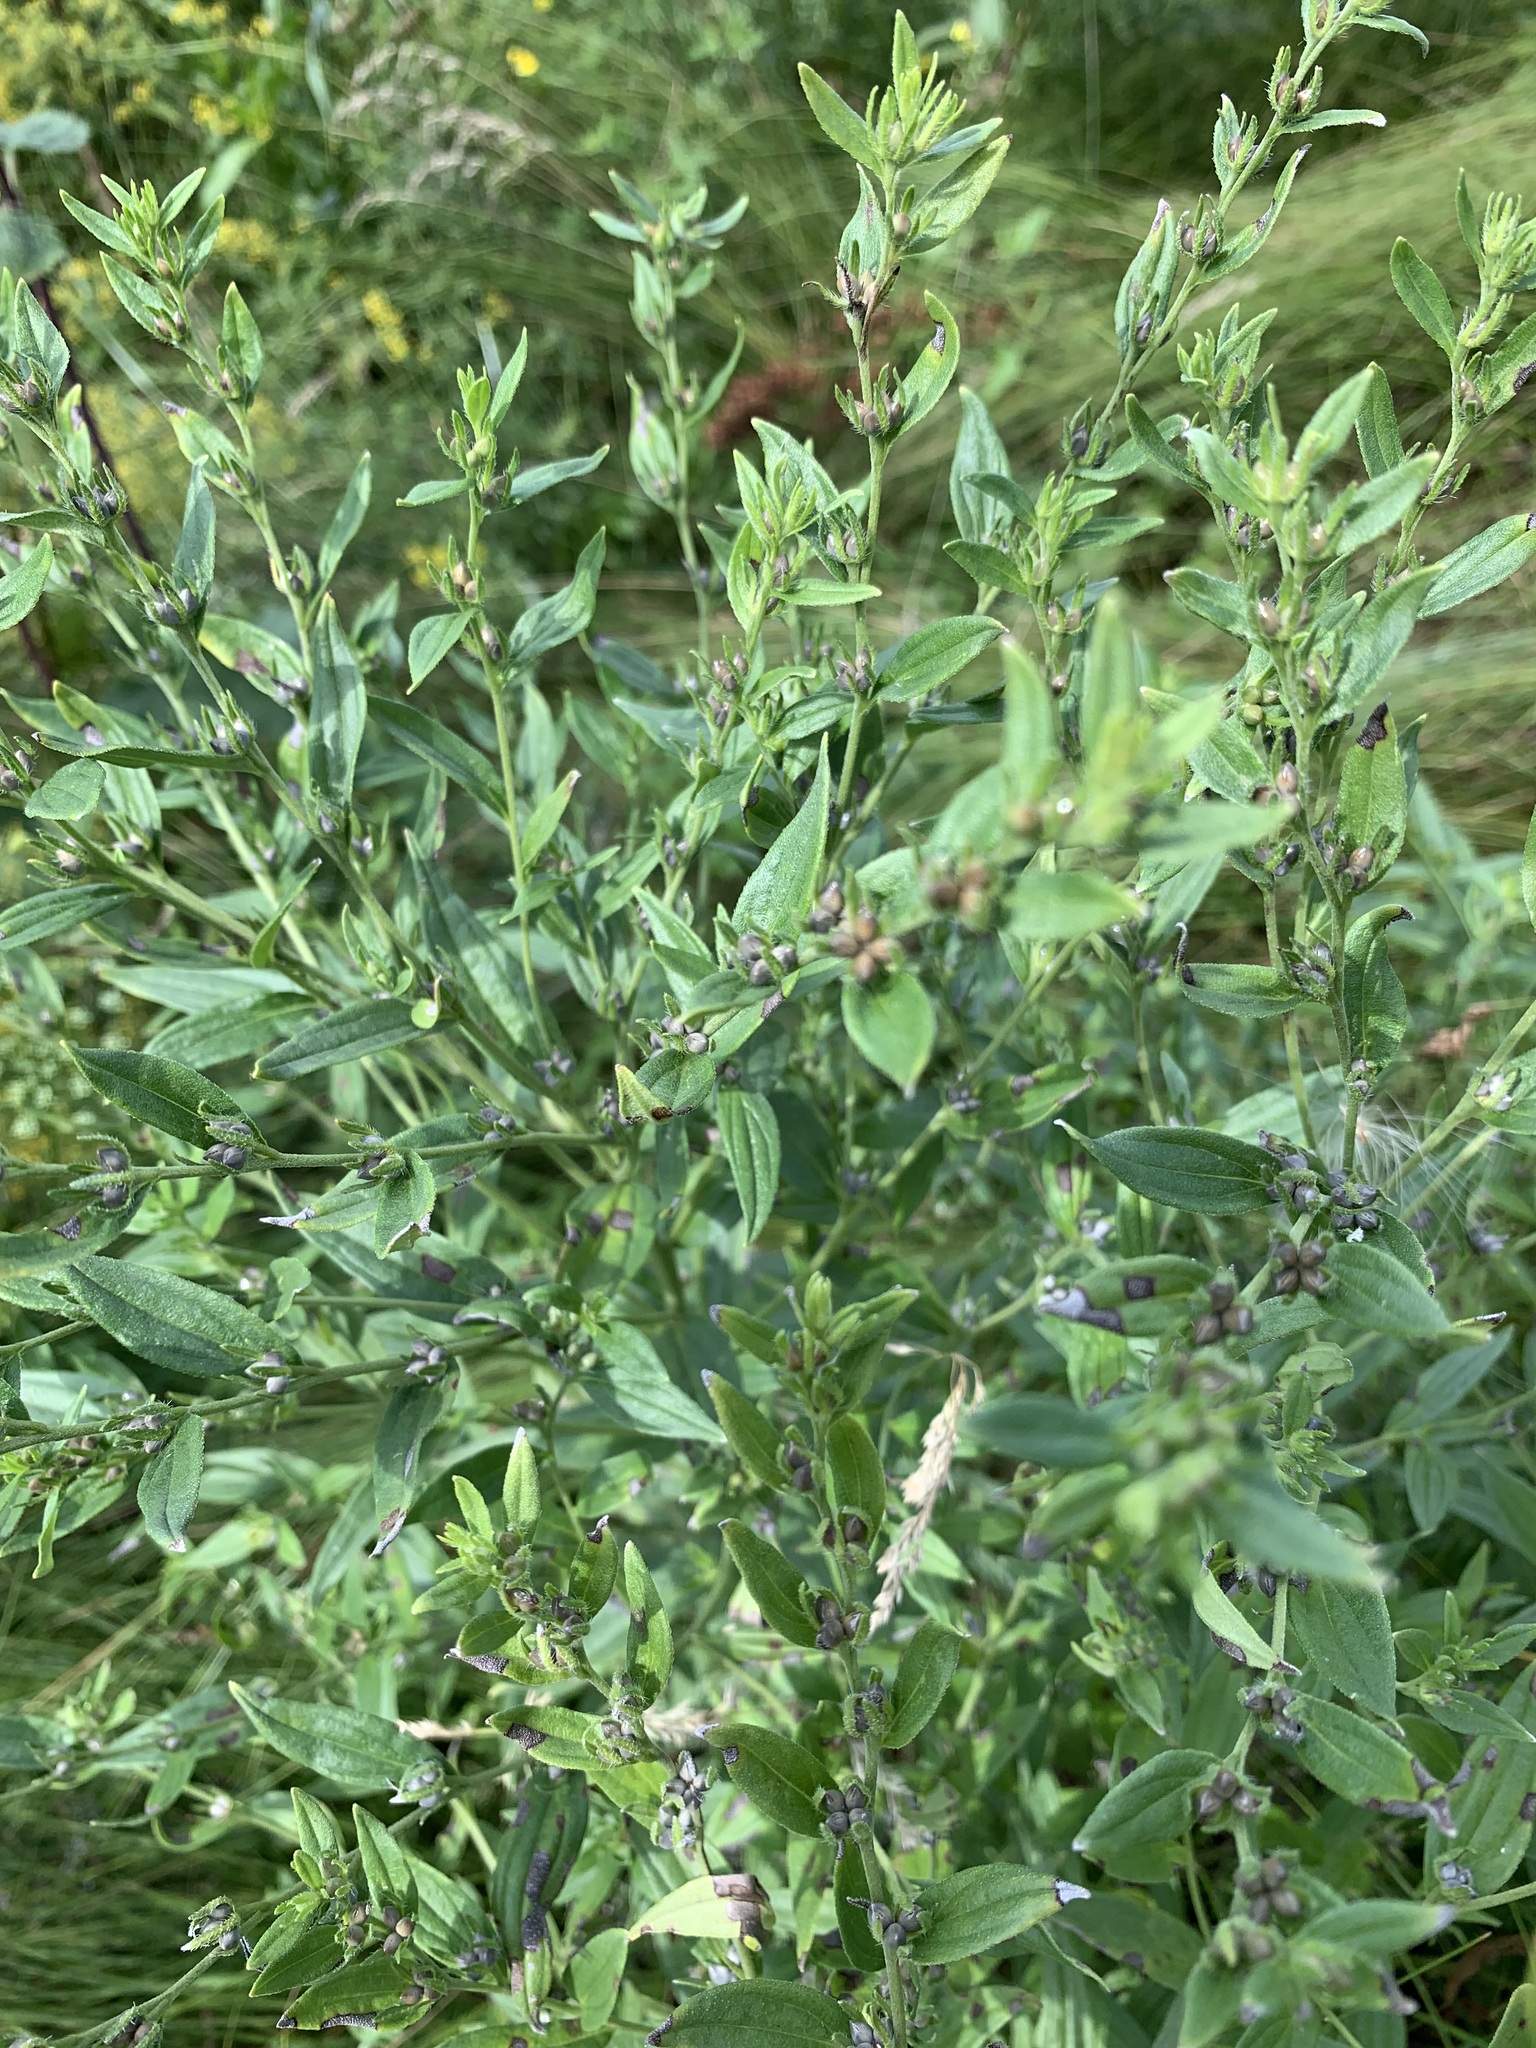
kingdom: Plantae
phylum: Tracheophyta
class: Magnoliopsida
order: Boraginales
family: Boraginaceae
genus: Lithospermum
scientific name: Lithospermum officinale
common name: Common gromwell
